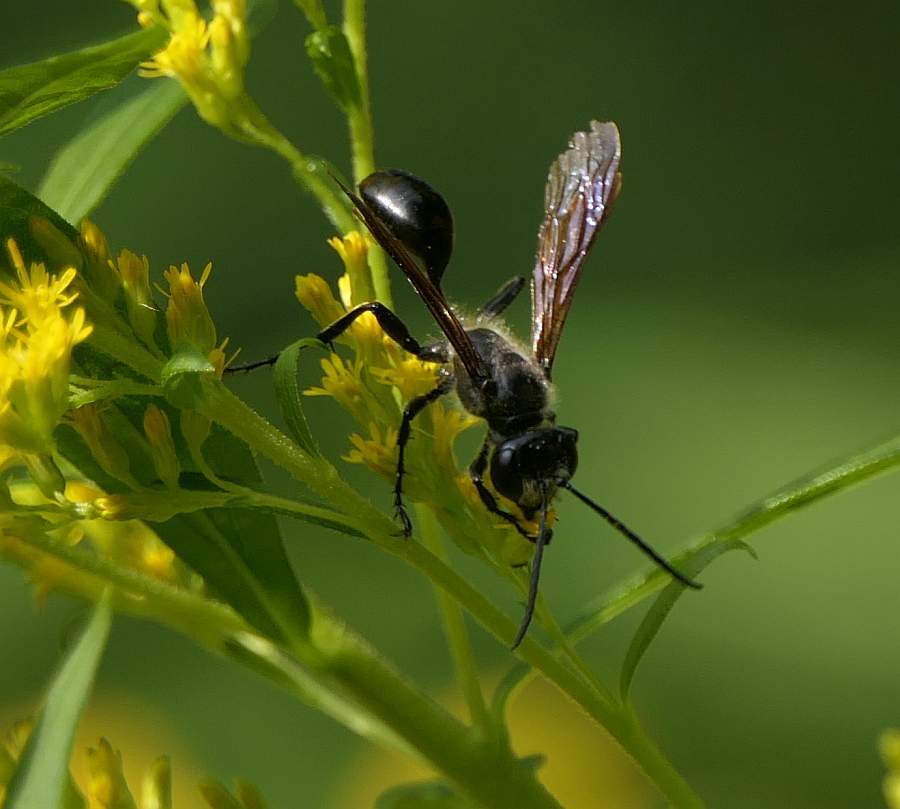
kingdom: Animalia
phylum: Arthropoda
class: Insecta
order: Hymenoptera
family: Sphecidae
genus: Isodontia
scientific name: Isodontia mexicana
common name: Mud dauber
